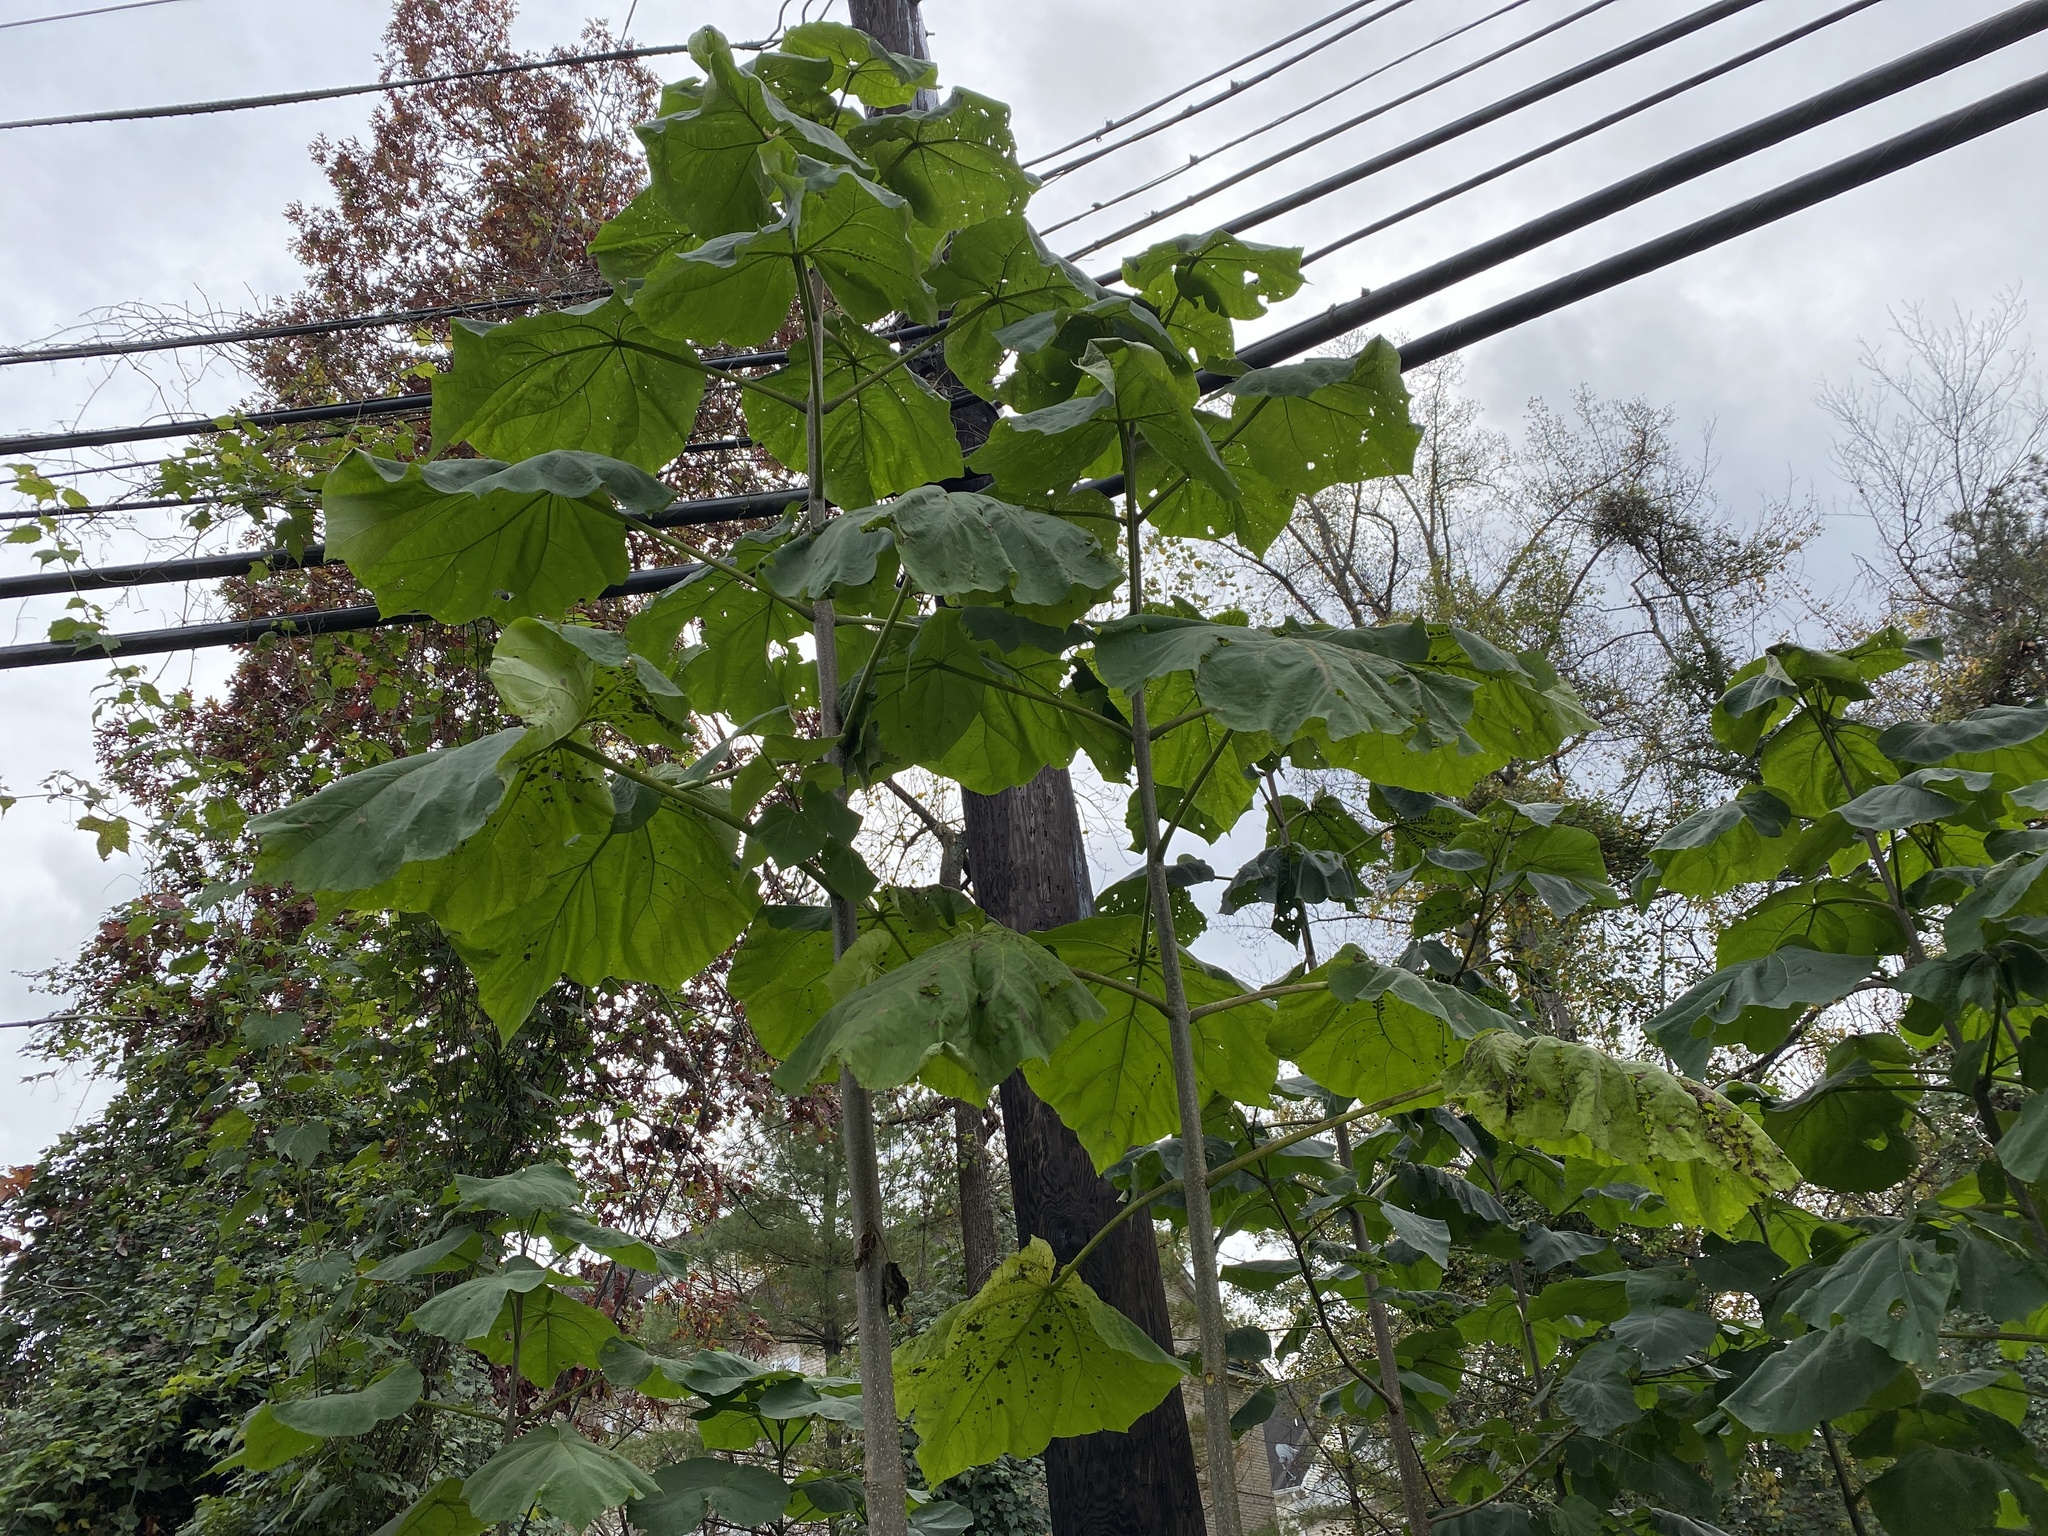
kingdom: Plantae
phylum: Tracheophyta
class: Magnoliopsida
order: Lamiales
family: Paulowniaceae
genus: Paulownia
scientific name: Paulownia tomentosa
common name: Foxglove-tree
